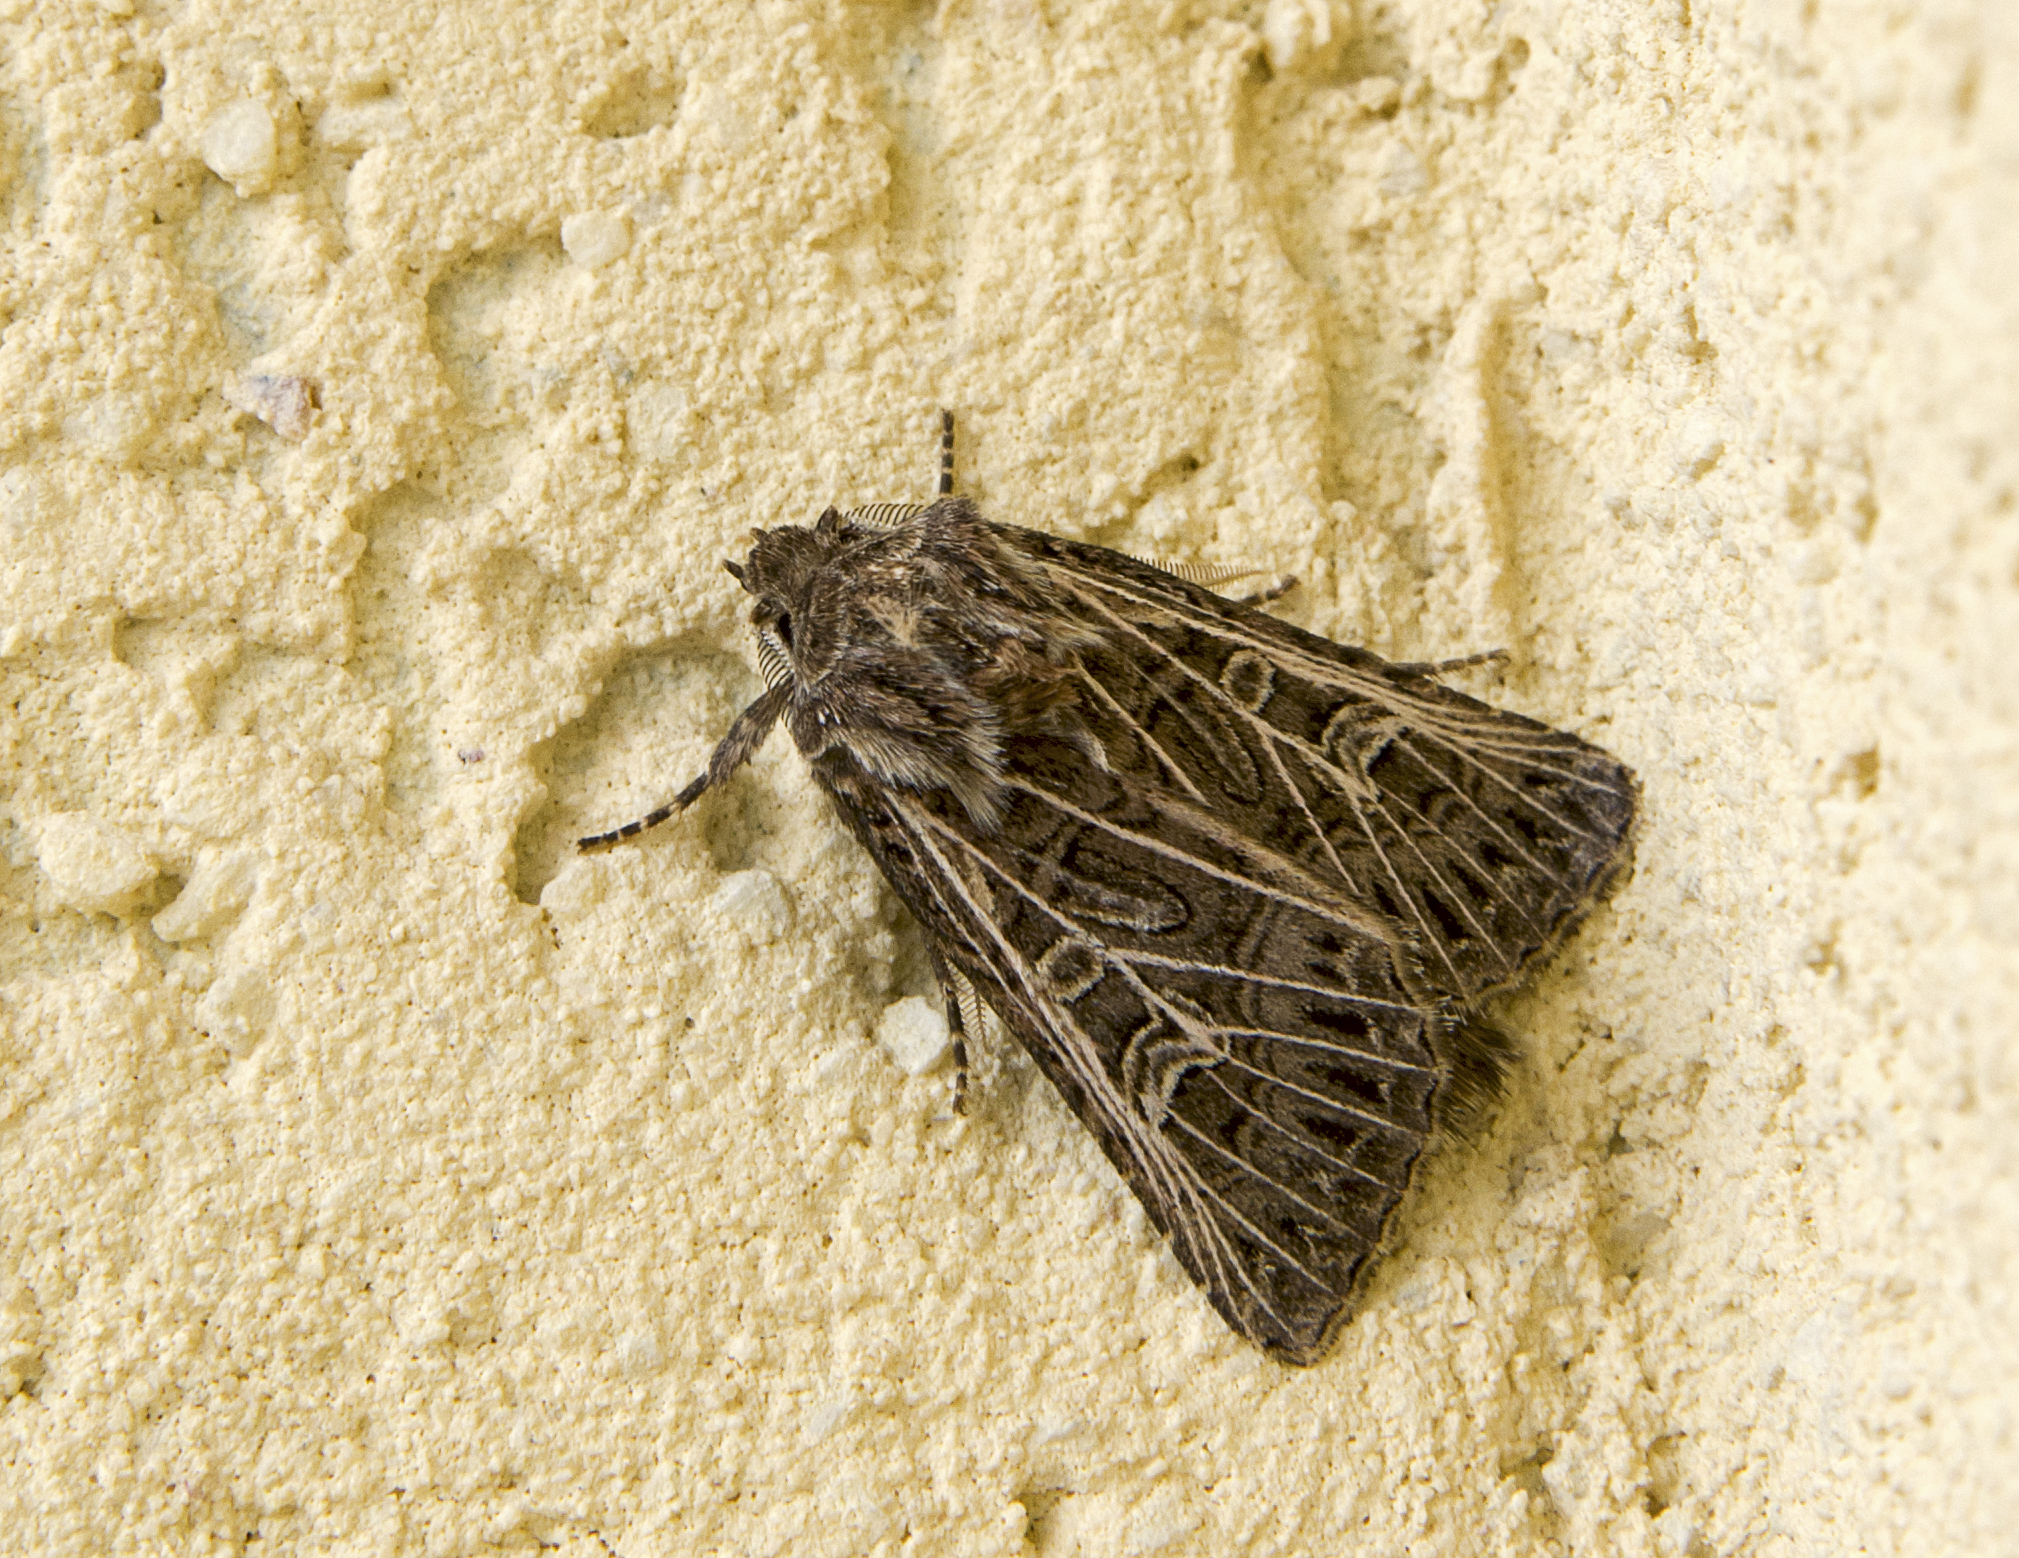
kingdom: Animalia
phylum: Arthropoda
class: Insecta
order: Lepidoptera
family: Noctuidae
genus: Tholera
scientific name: Tholera decimalis
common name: Feathered gothic
